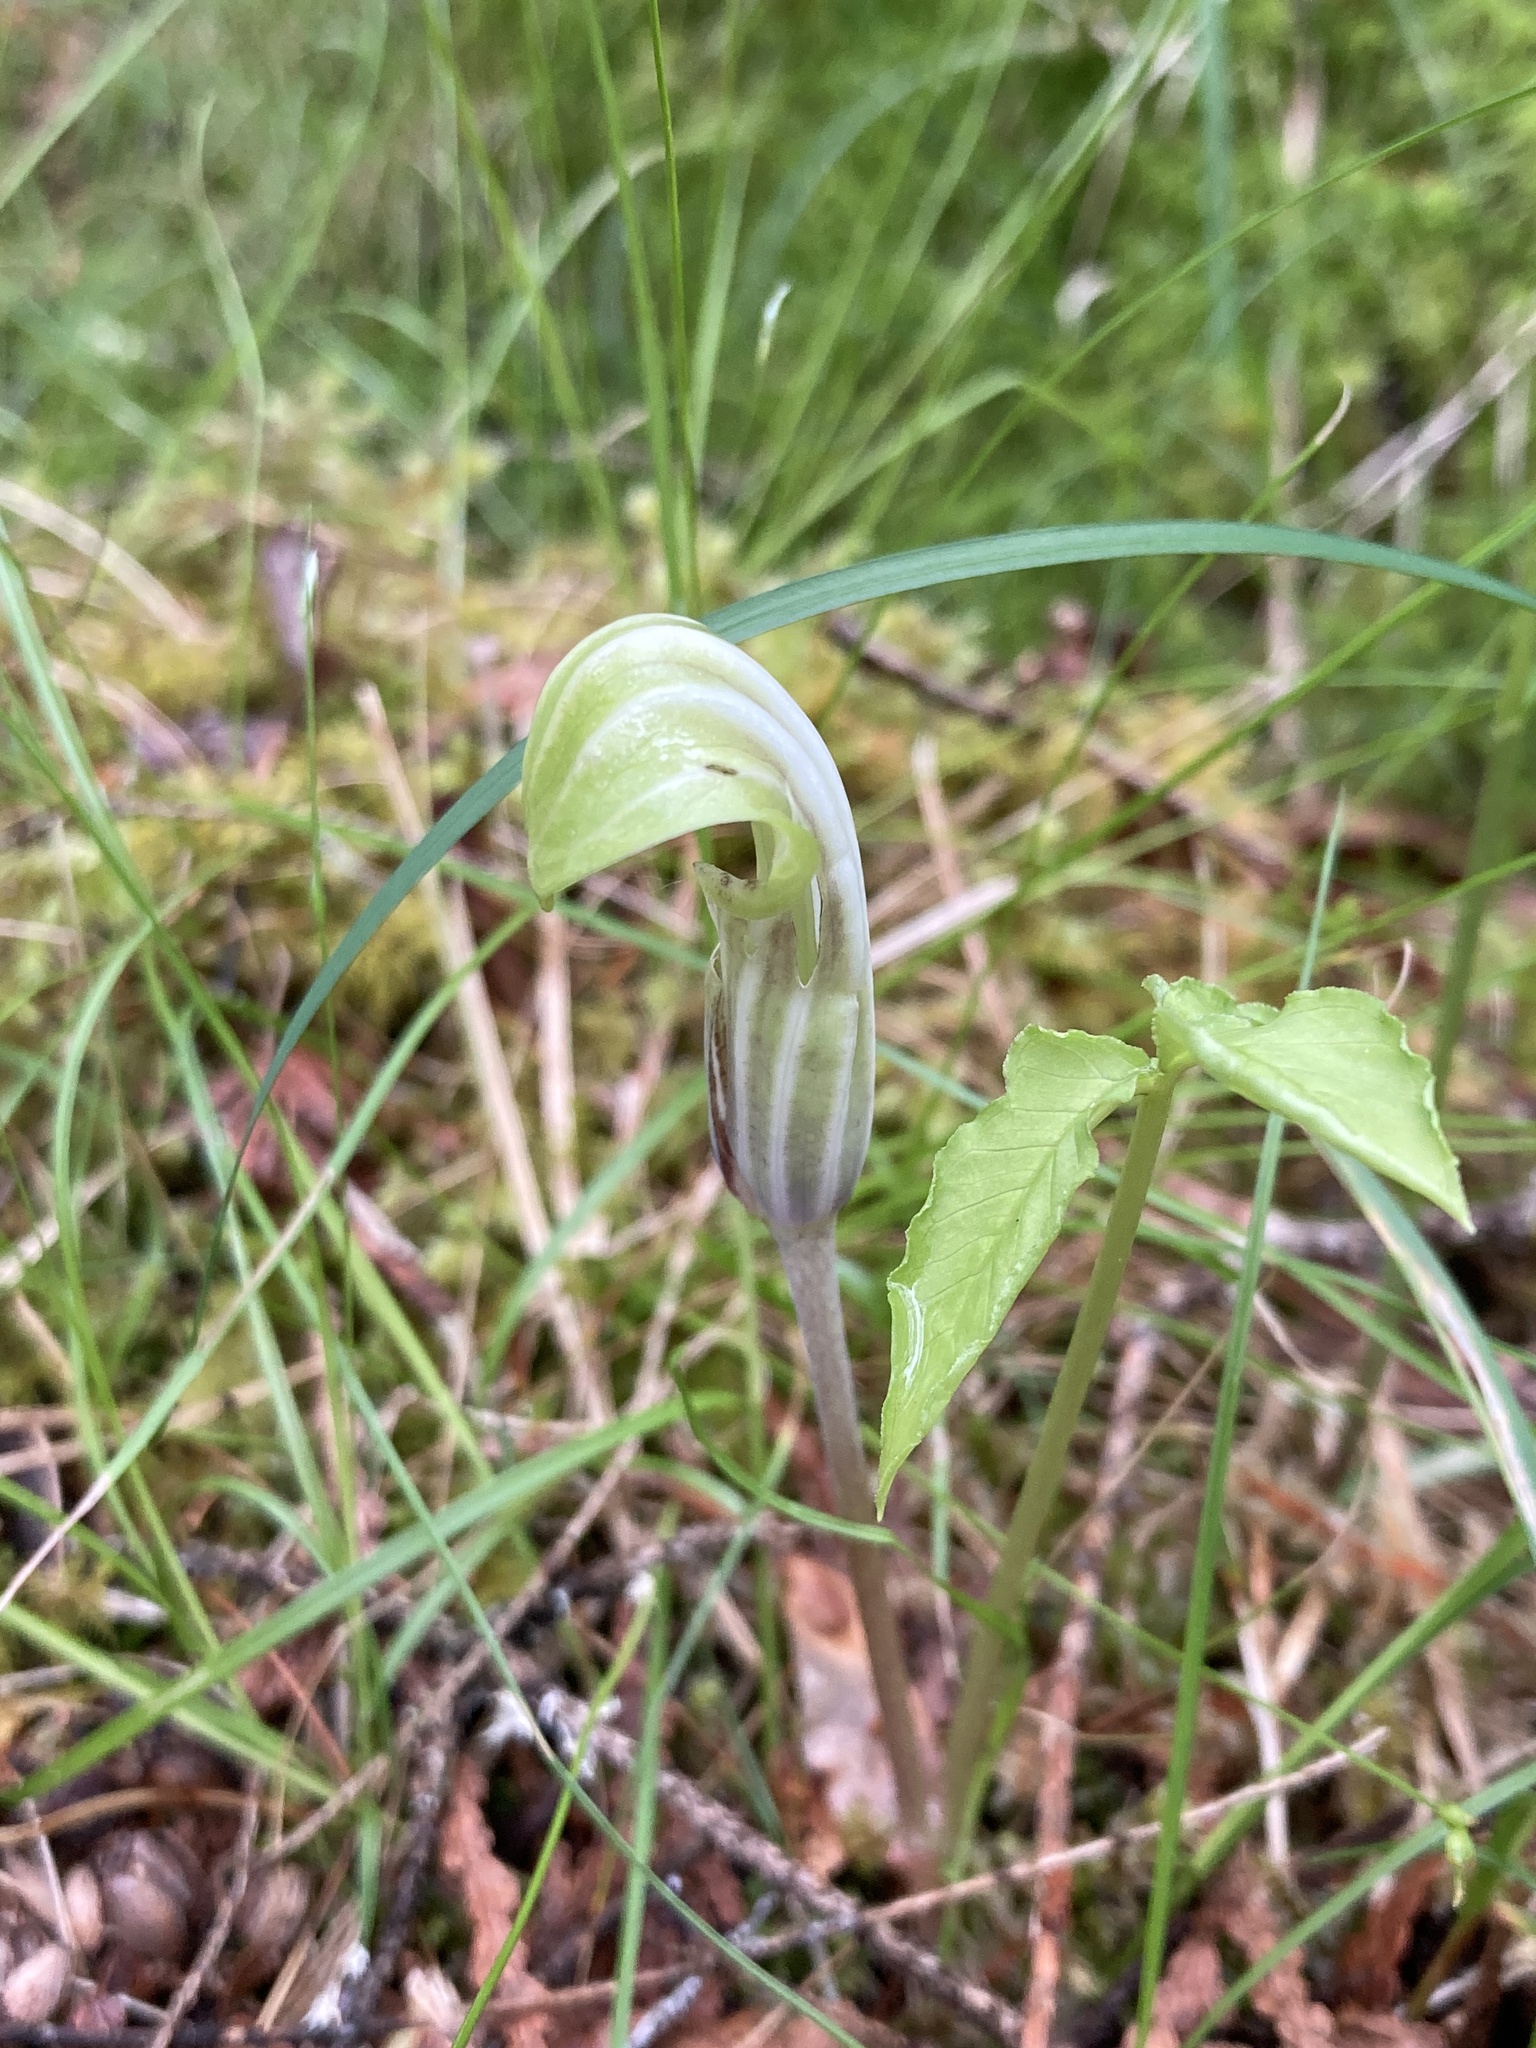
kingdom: Plantae
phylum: Tracheophyta
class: Liliopsida
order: Alismatales
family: Araceae
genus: Arisaema
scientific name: Arisaema stewardsonii
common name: Swamp jack-in-the-pulpit
